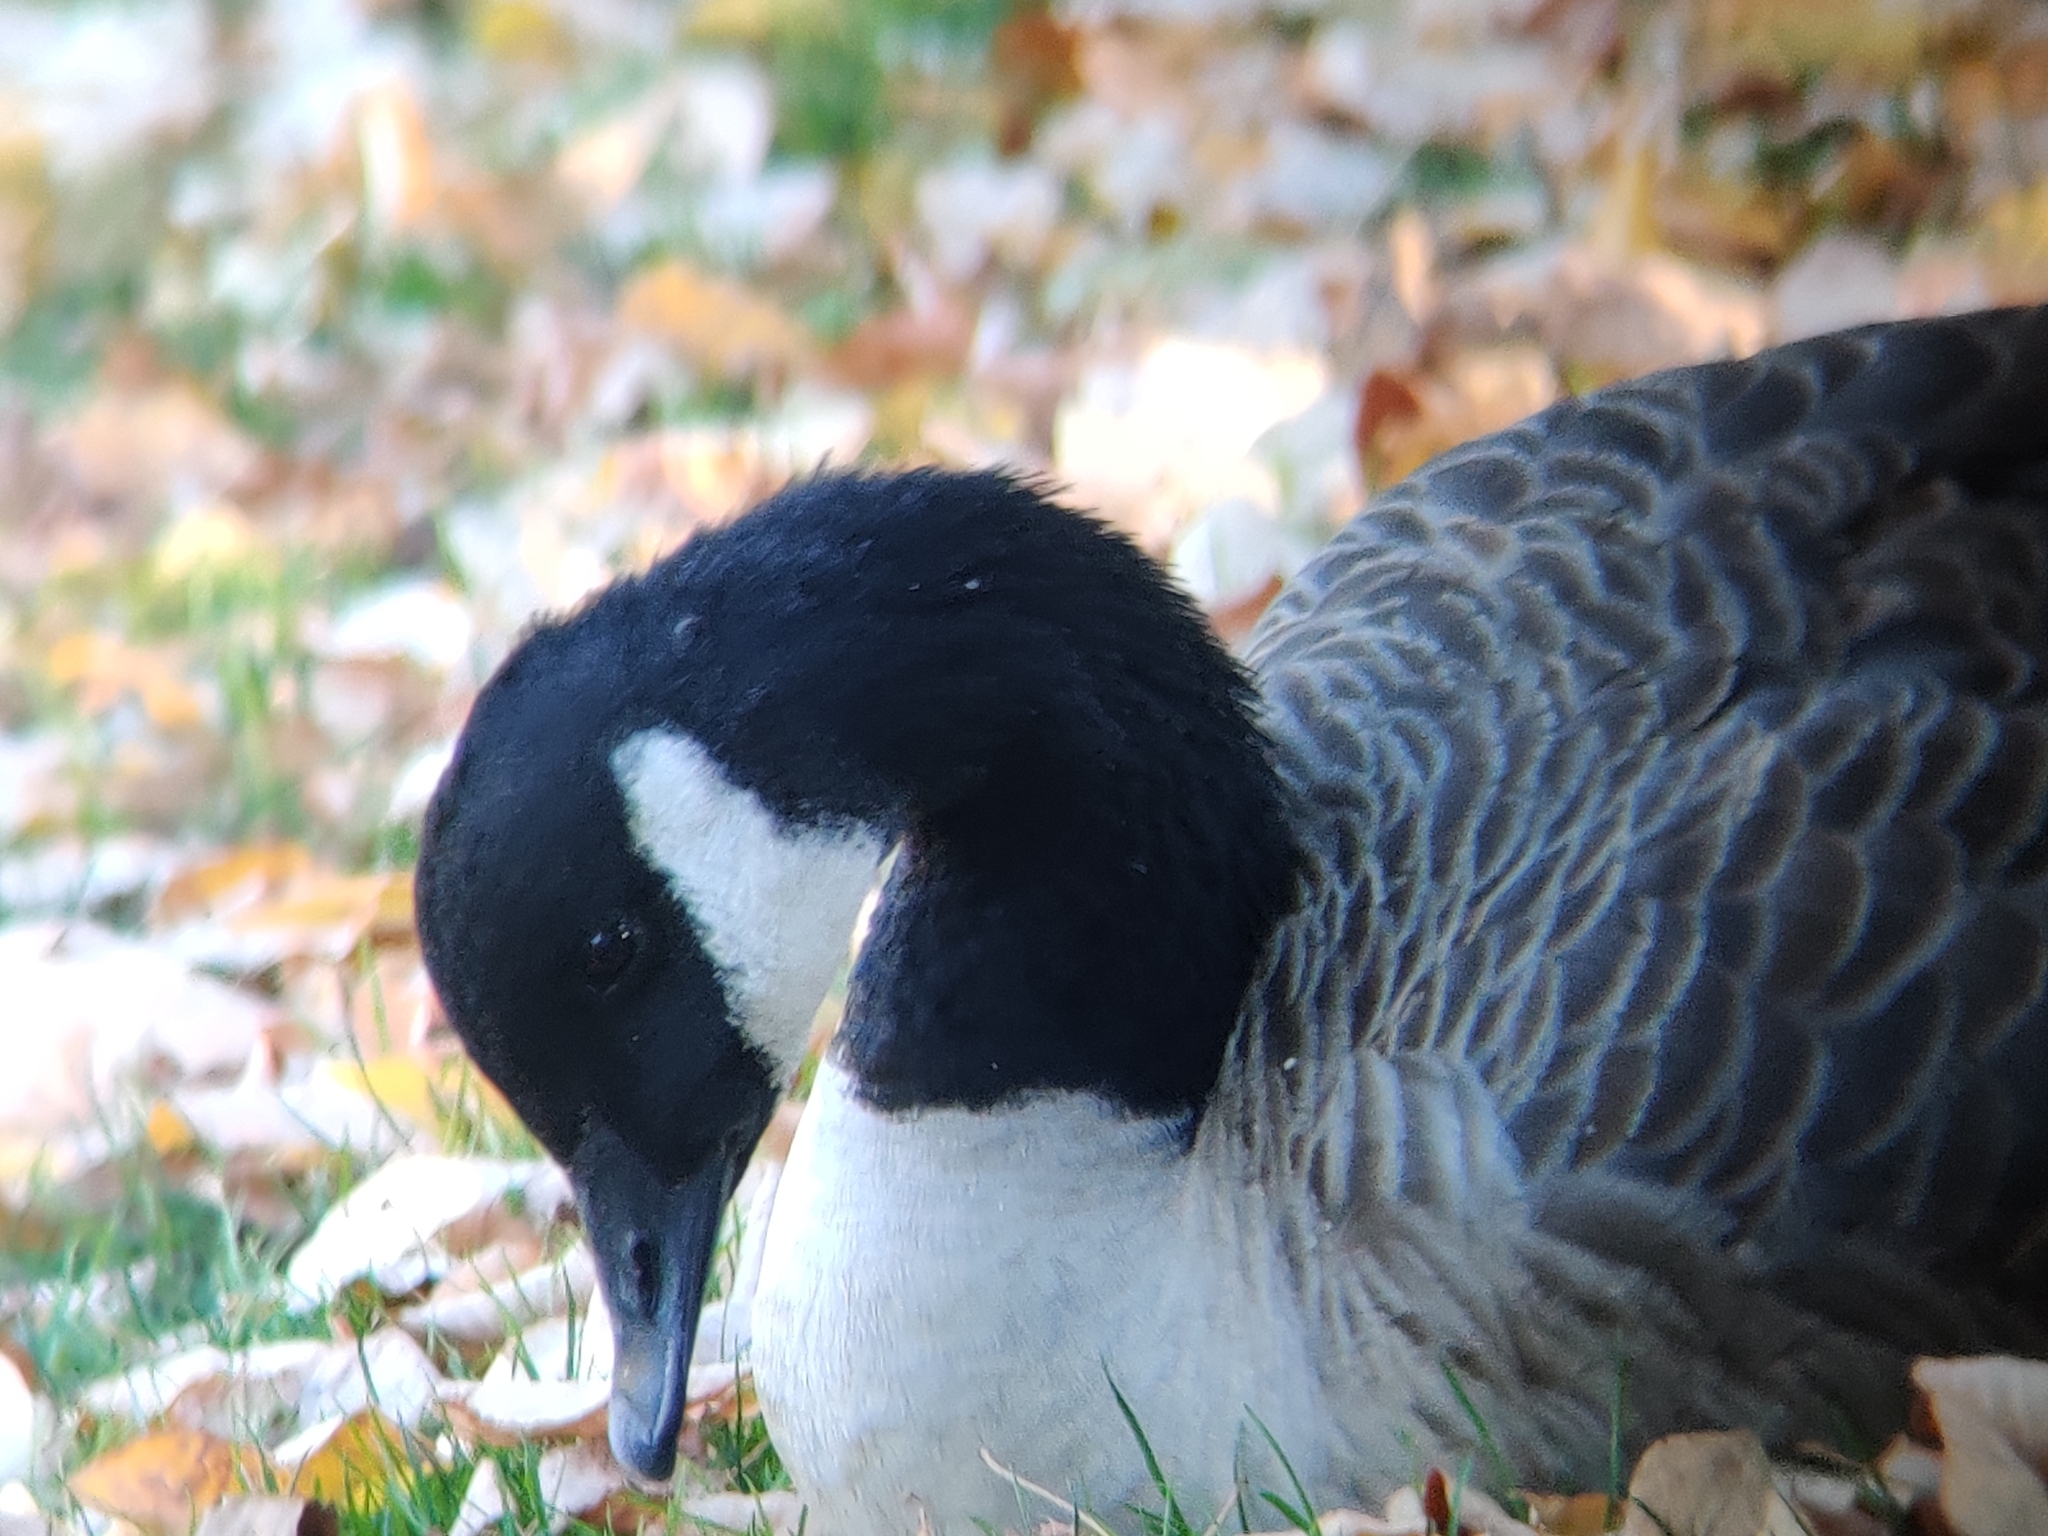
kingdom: Animalia
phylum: Chordata
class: Aves
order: Anseriformes
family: Anatidae
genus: Branta
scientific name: Branta canadensis
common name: Canada goose
